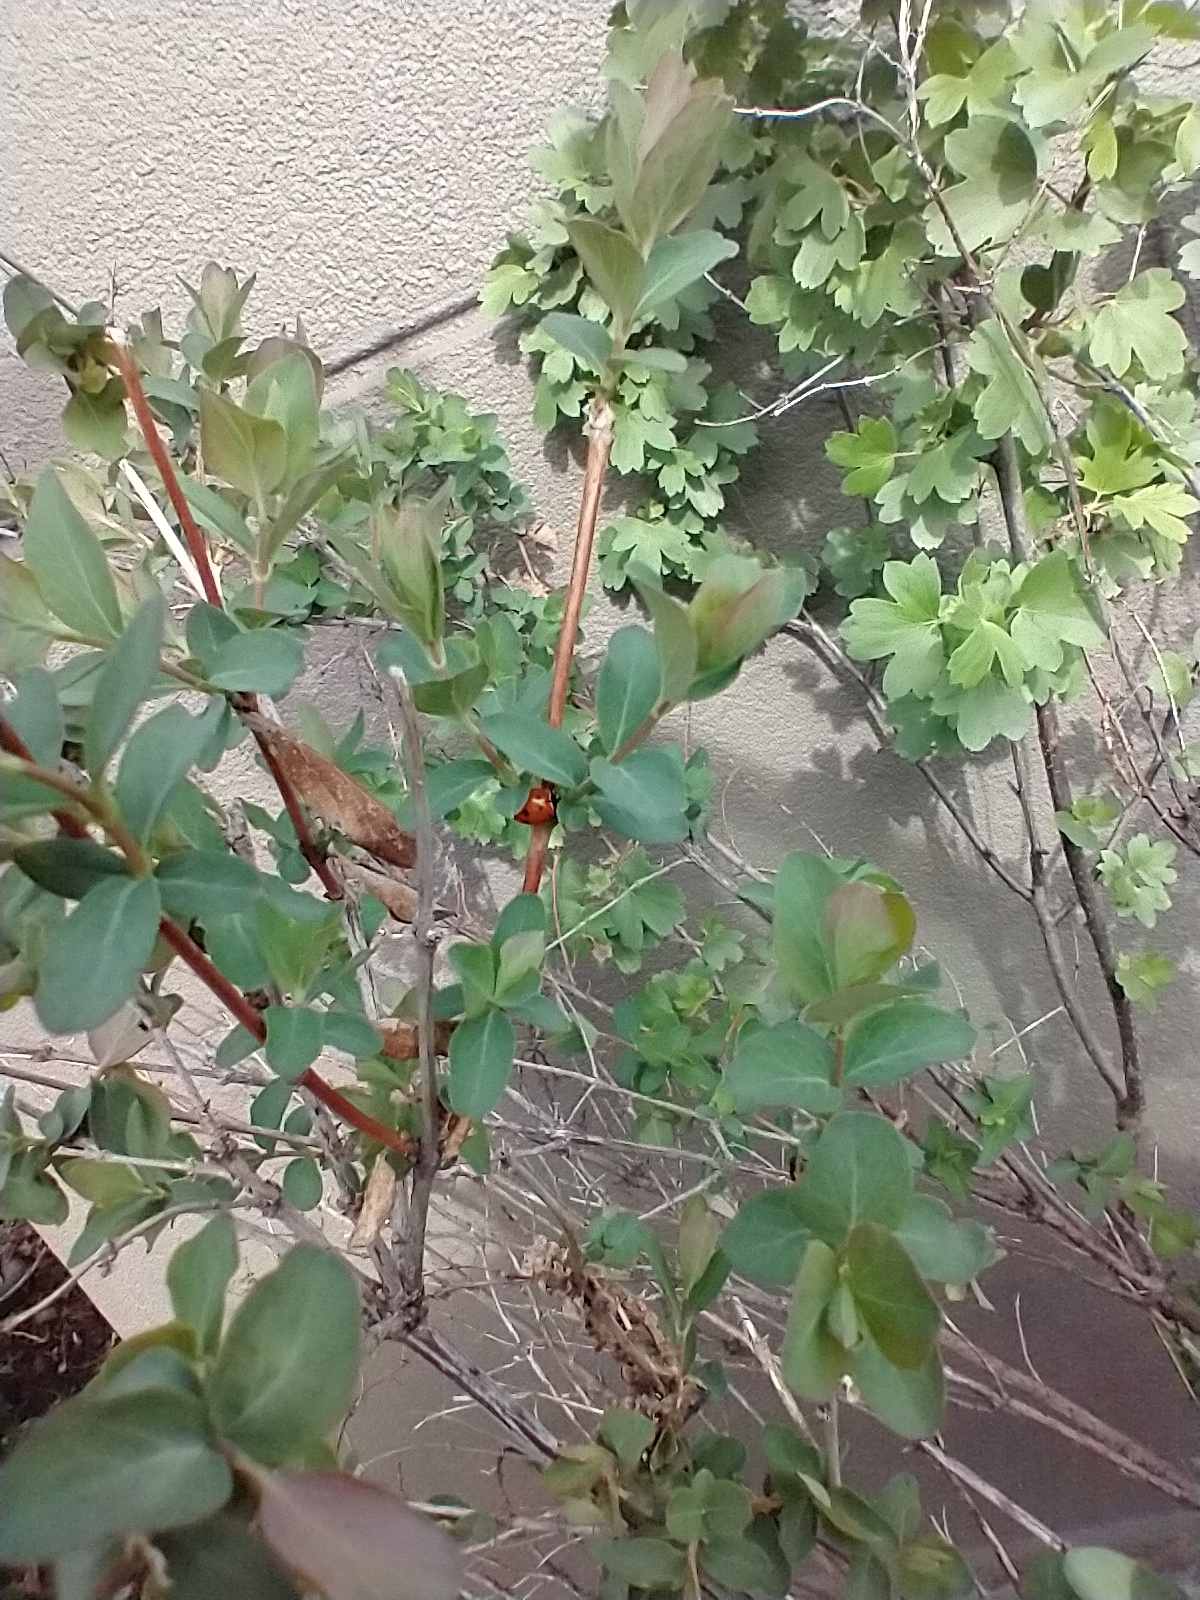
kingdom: Animalia
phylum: Arthropoda
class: Insecta
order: Coleoptera
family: Coccinellidae
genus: Hippodamia
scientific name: Hippodamia convergens
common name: Convergent lady beetle
